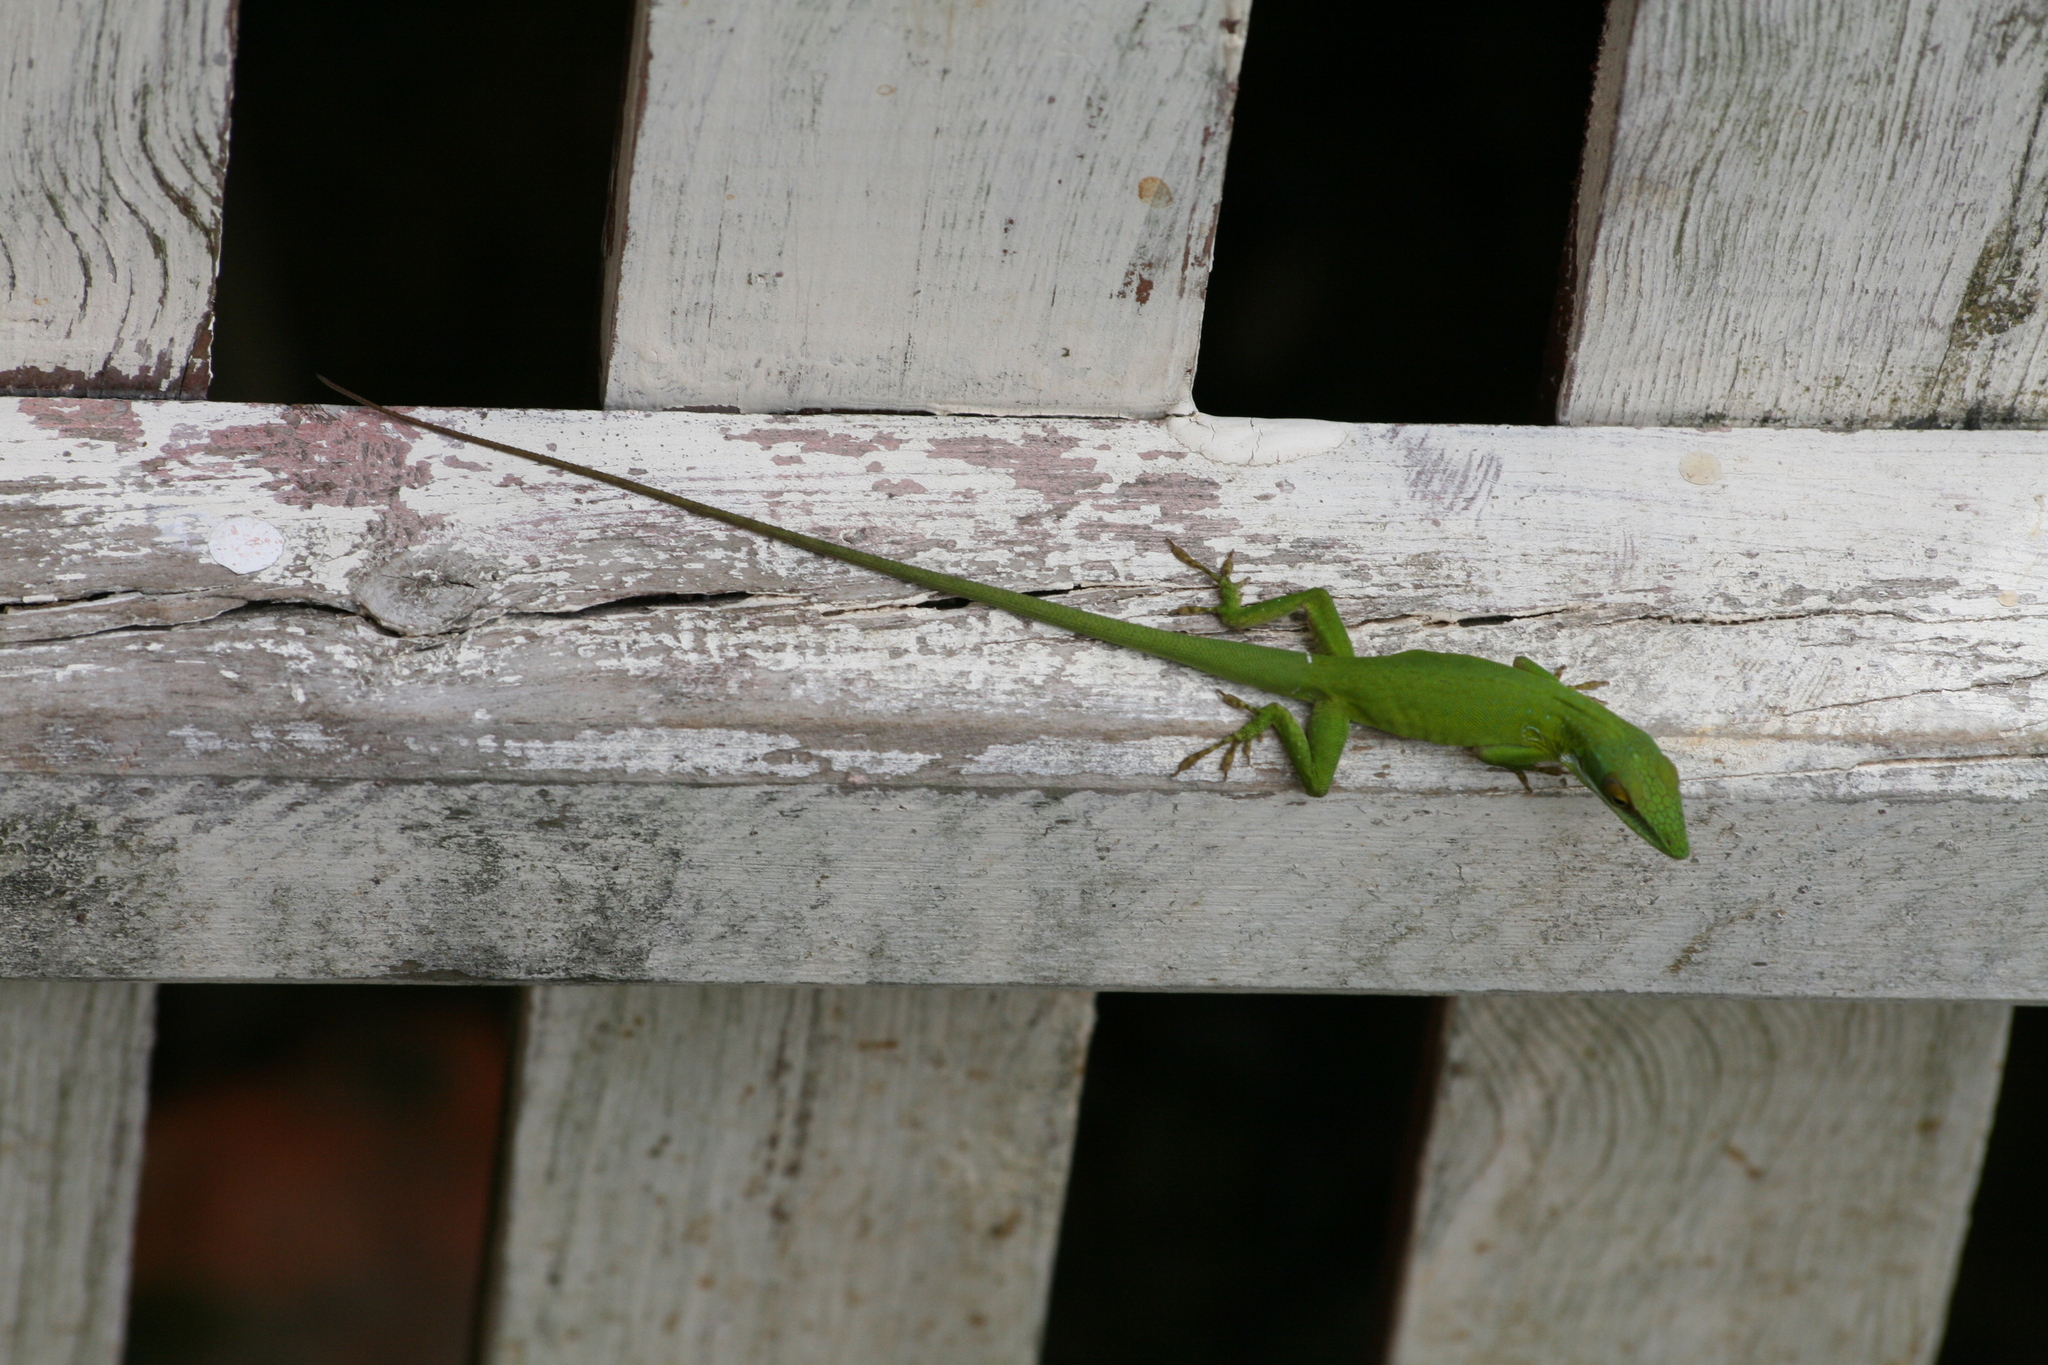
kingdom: Animalia
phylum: Chordata
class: Squamata
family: Dactyloidae
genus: Anolis
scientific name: Anolis allisoni
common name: Allison's anole
